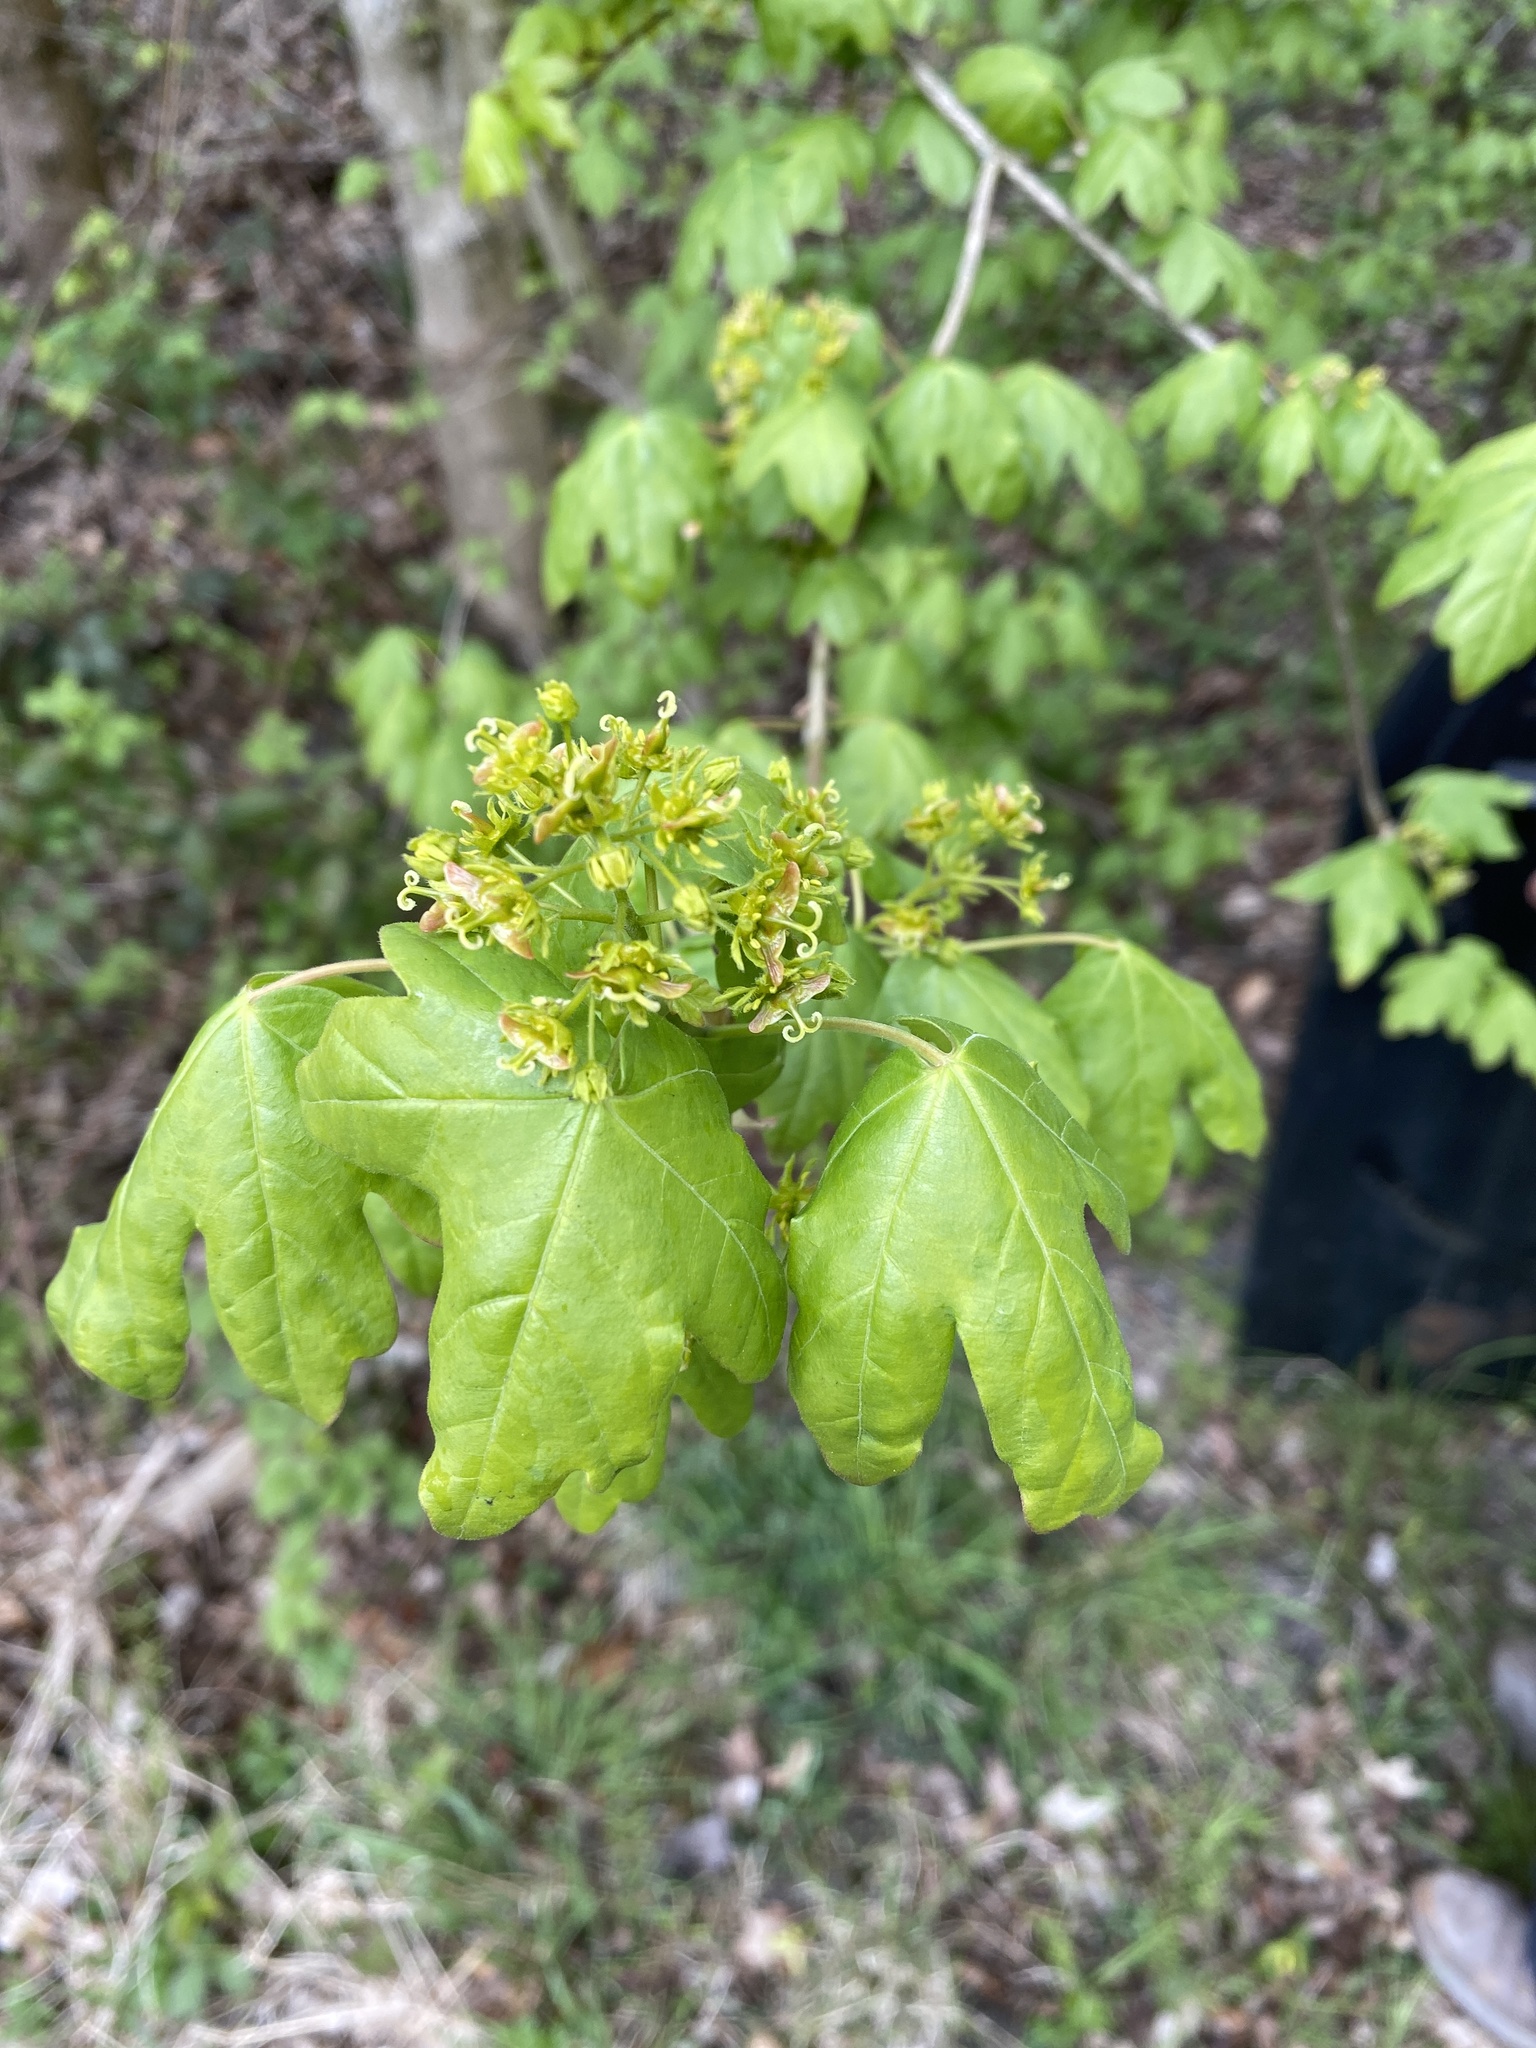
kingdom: Plantae
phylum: Tracheophyta
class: Magnoliopsida
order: Sapindales
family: Sapindaceae
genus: Acer
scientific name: Acer campestre
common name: Field maple
